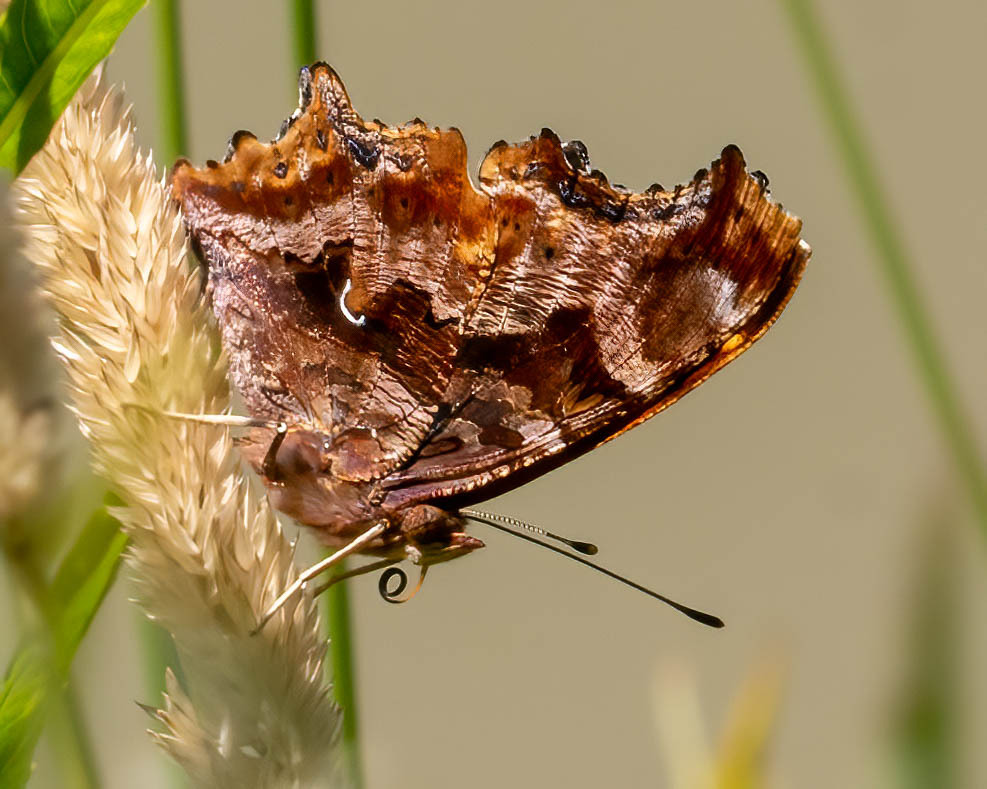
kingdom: Animalia
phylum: Arthropoda
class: Insecta
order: Lepidoptera
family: Nymphalidae
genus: Polygonia
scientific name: Polygonia comma
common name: Eastern comma
